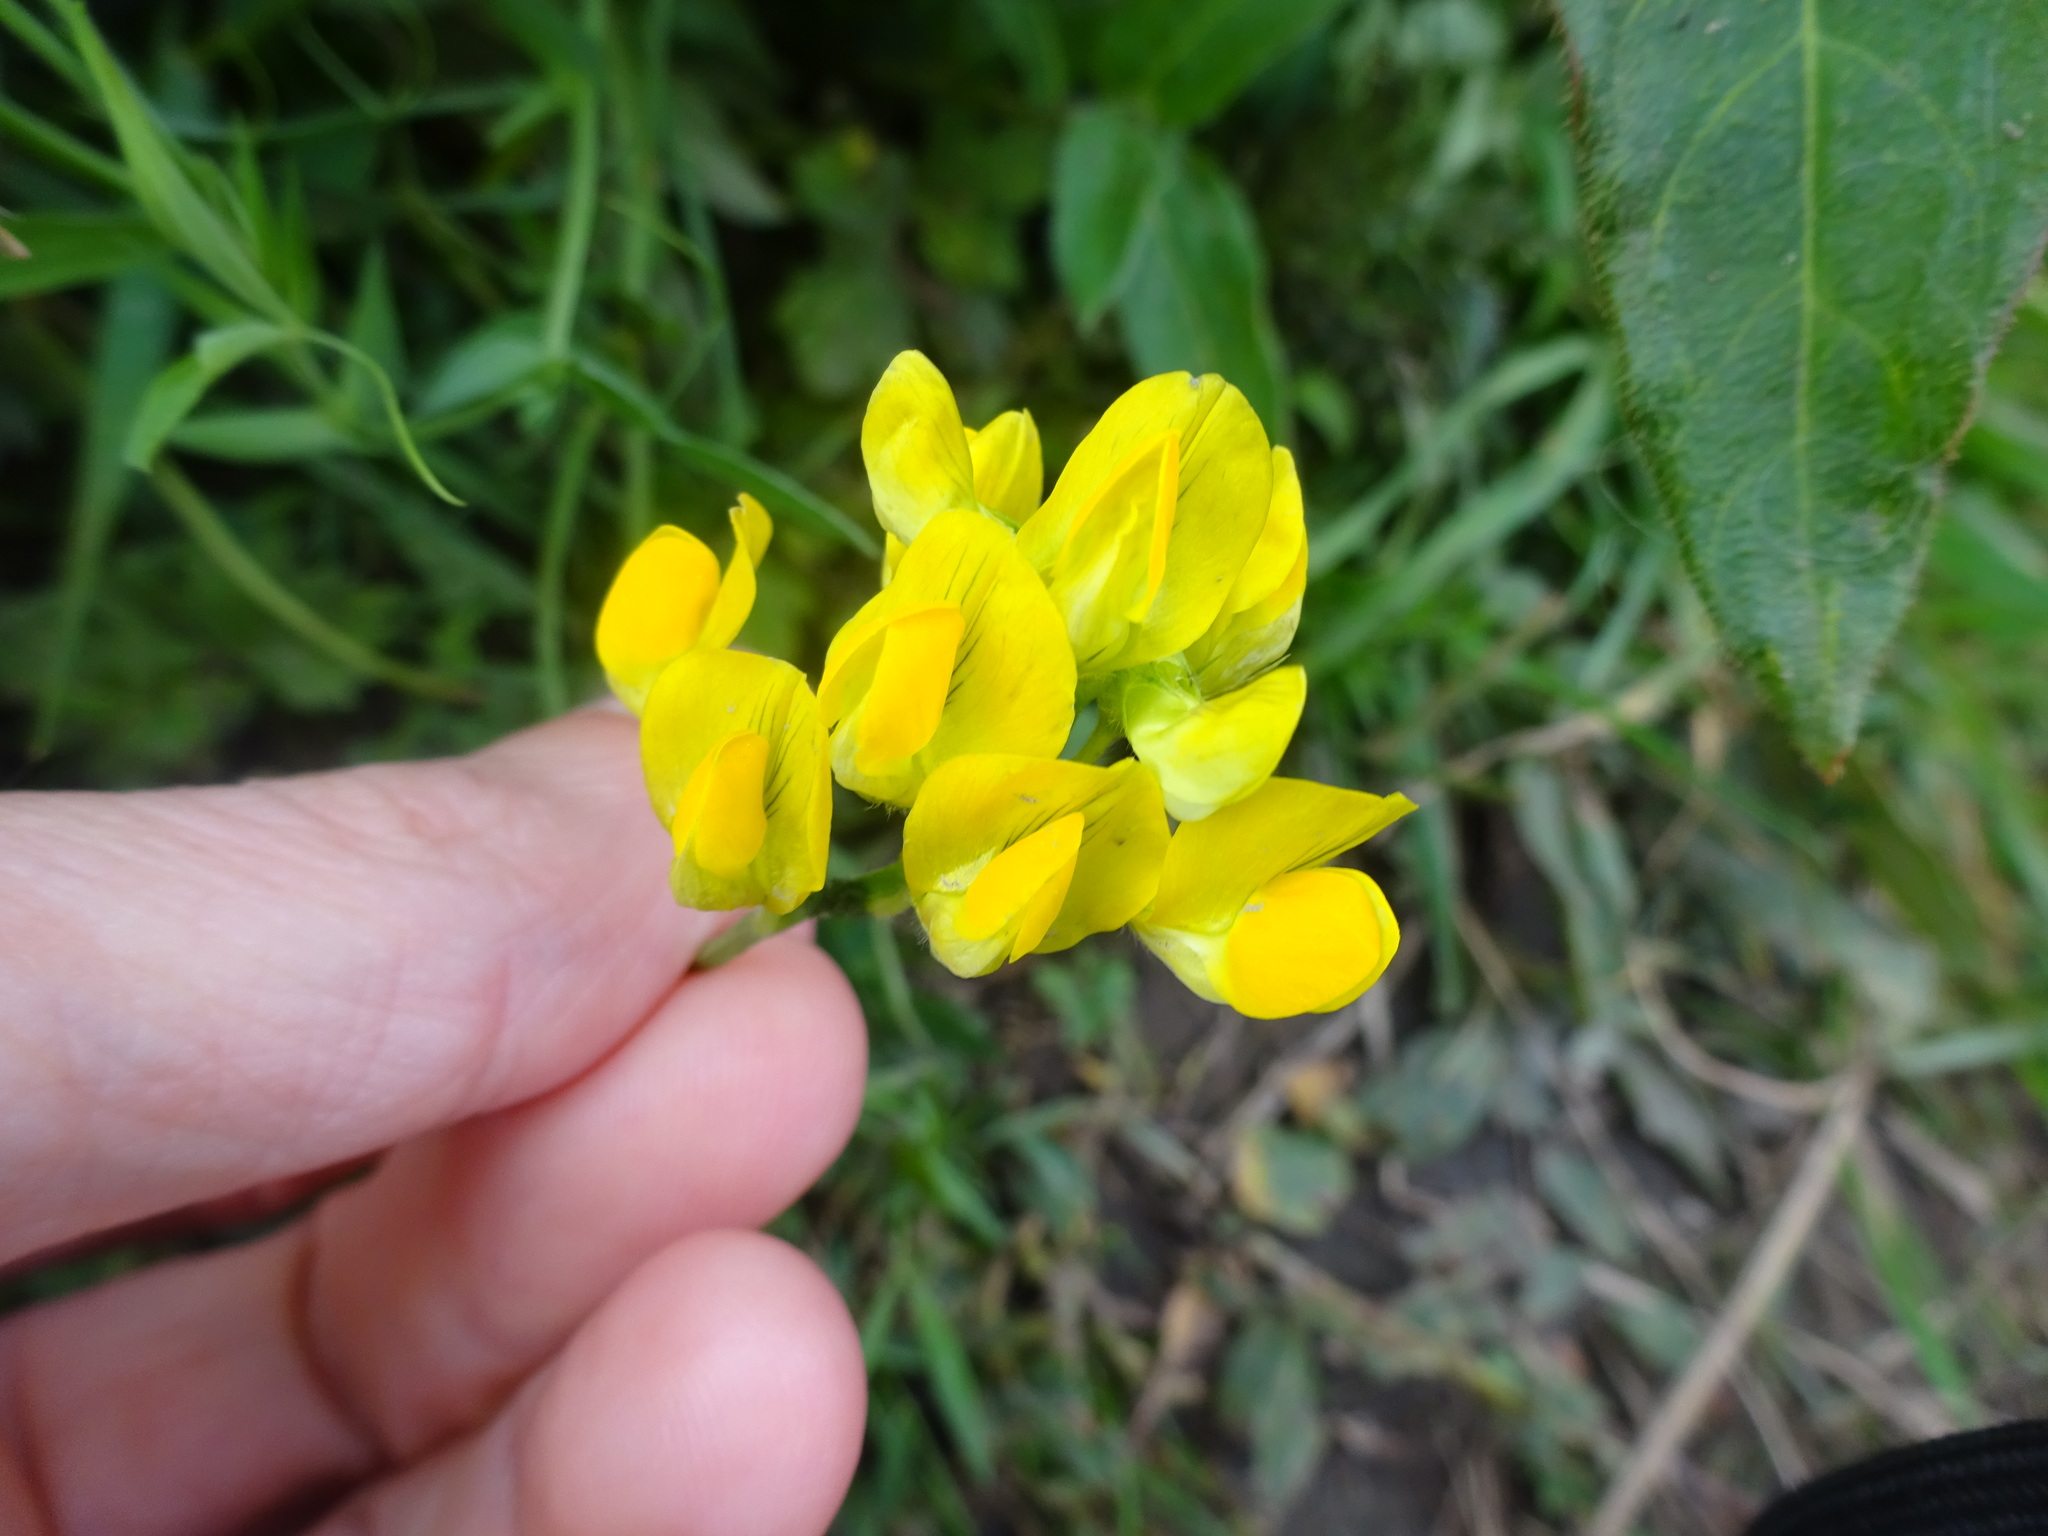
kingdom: Plantae
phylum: Tracheophyta
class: Magnoliopsida
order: Fabales
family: Fabaceae
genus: Lathyrus
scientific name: Lathyrus pratensis
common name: Meadow vetchling
